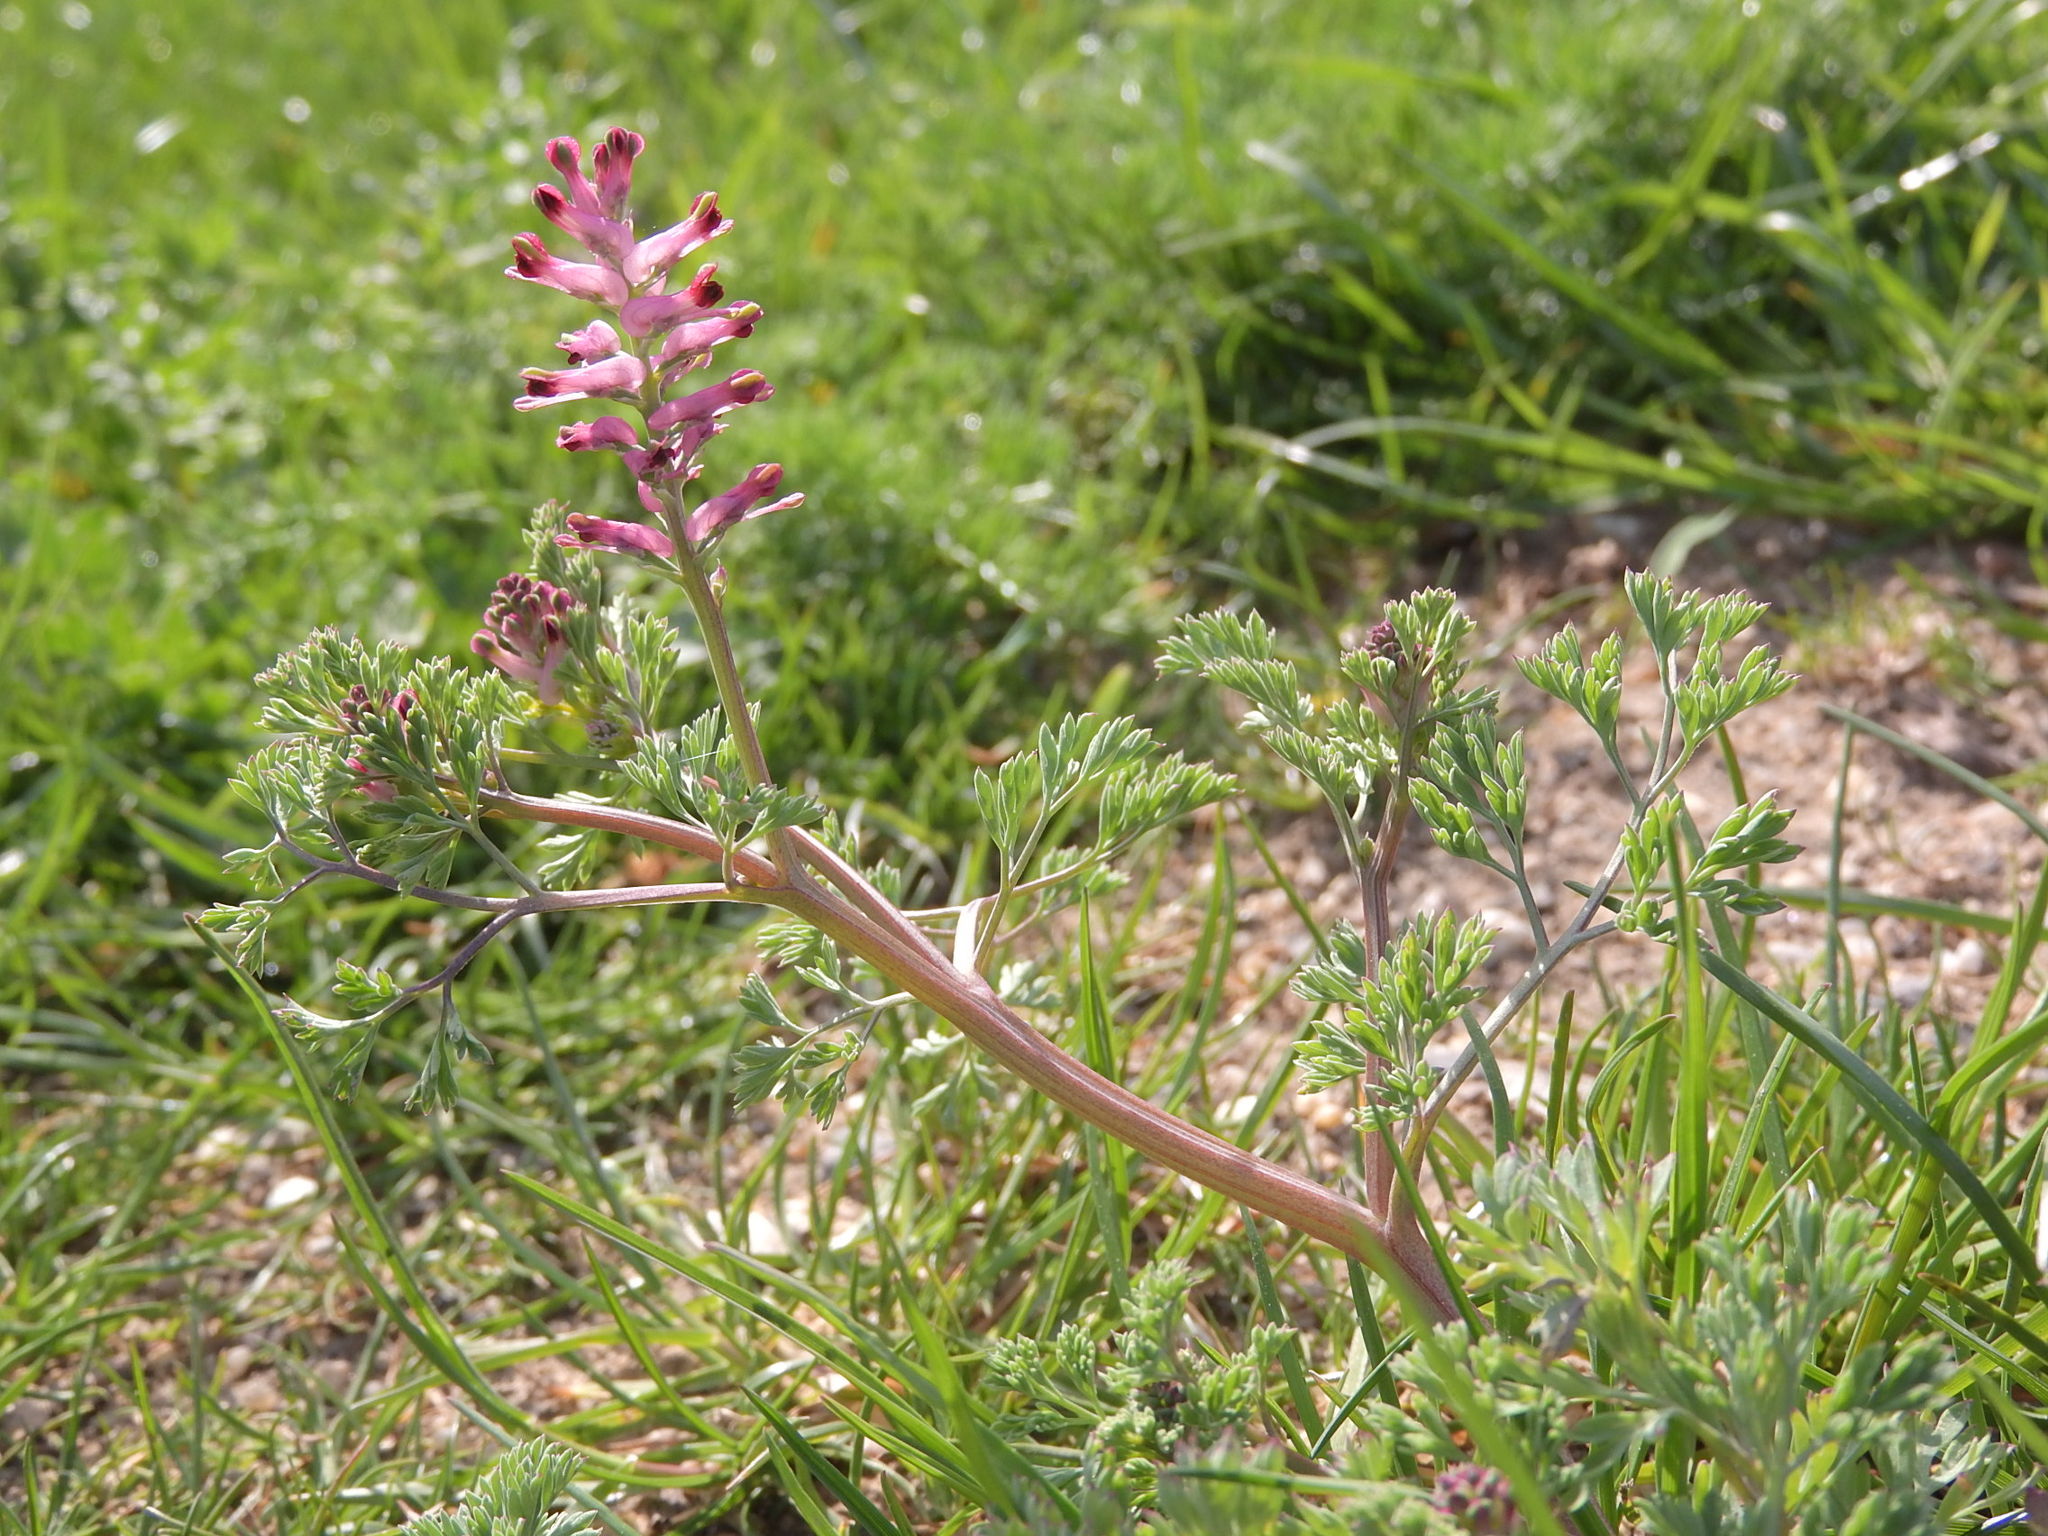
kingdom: Plantae
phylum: Tracheophyta
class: Magnoliopsida
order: Ranunculales
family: Papaveraceae
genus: Fumaria
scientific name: Fumaria officinalis
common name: Common fumitory
